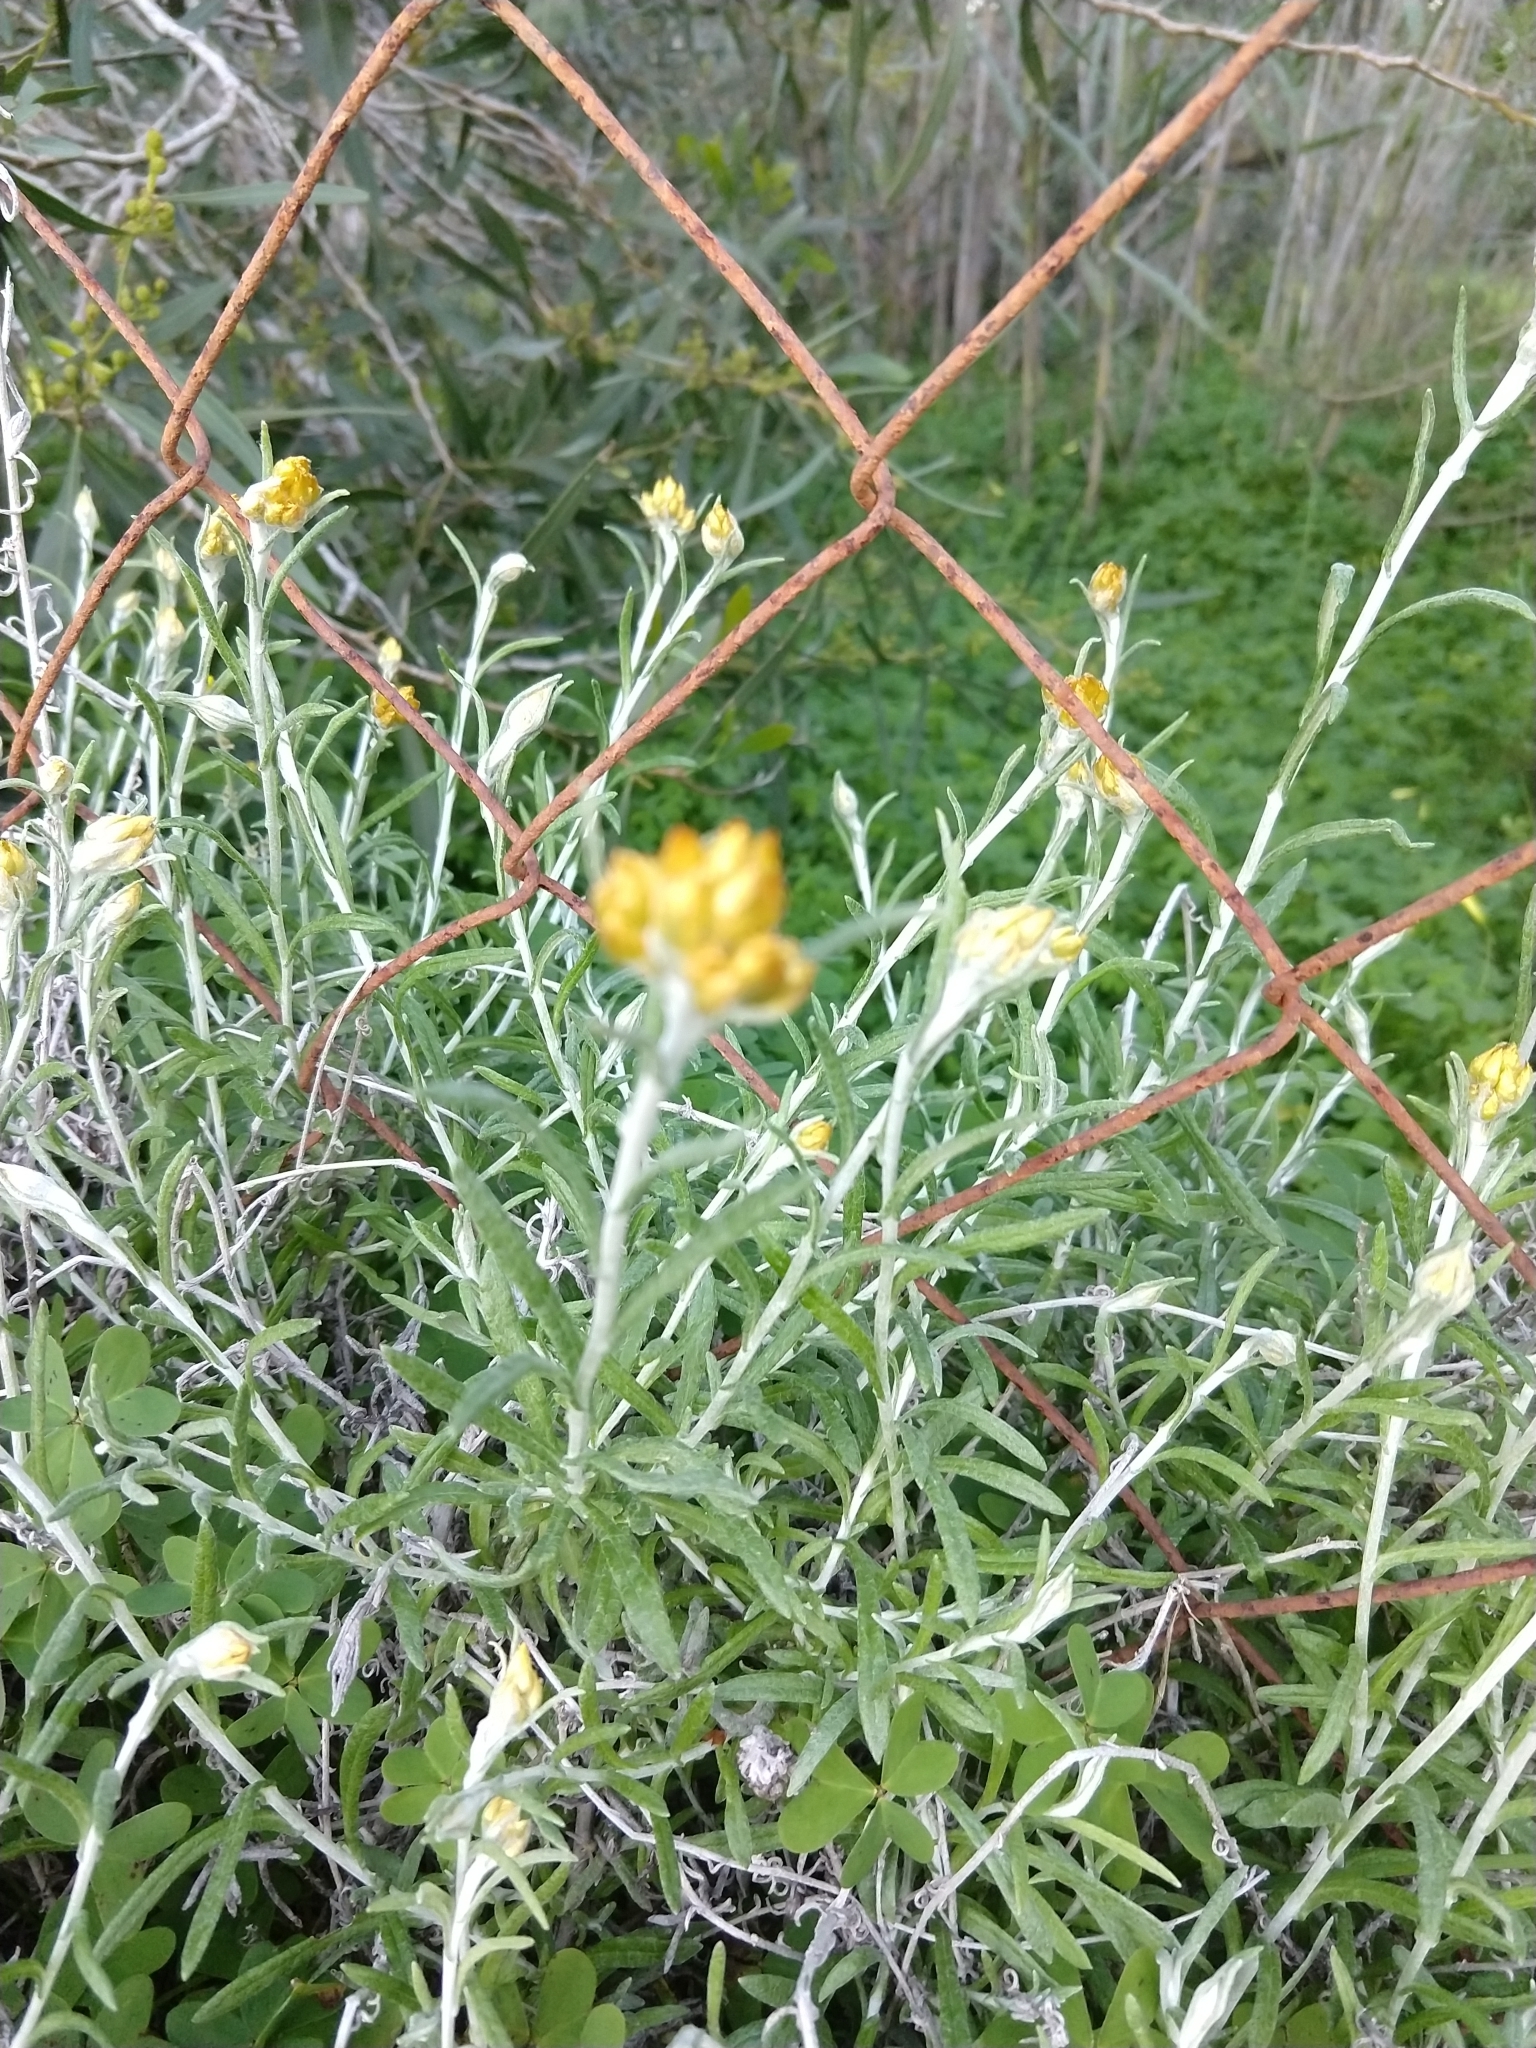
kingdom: Plantae
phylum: Tracheophyta
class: Magnoliopsida
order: Asterales
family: Asteraceae
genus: Helichrysum
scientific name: Helichrysum stoechas
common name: Goldilocks
